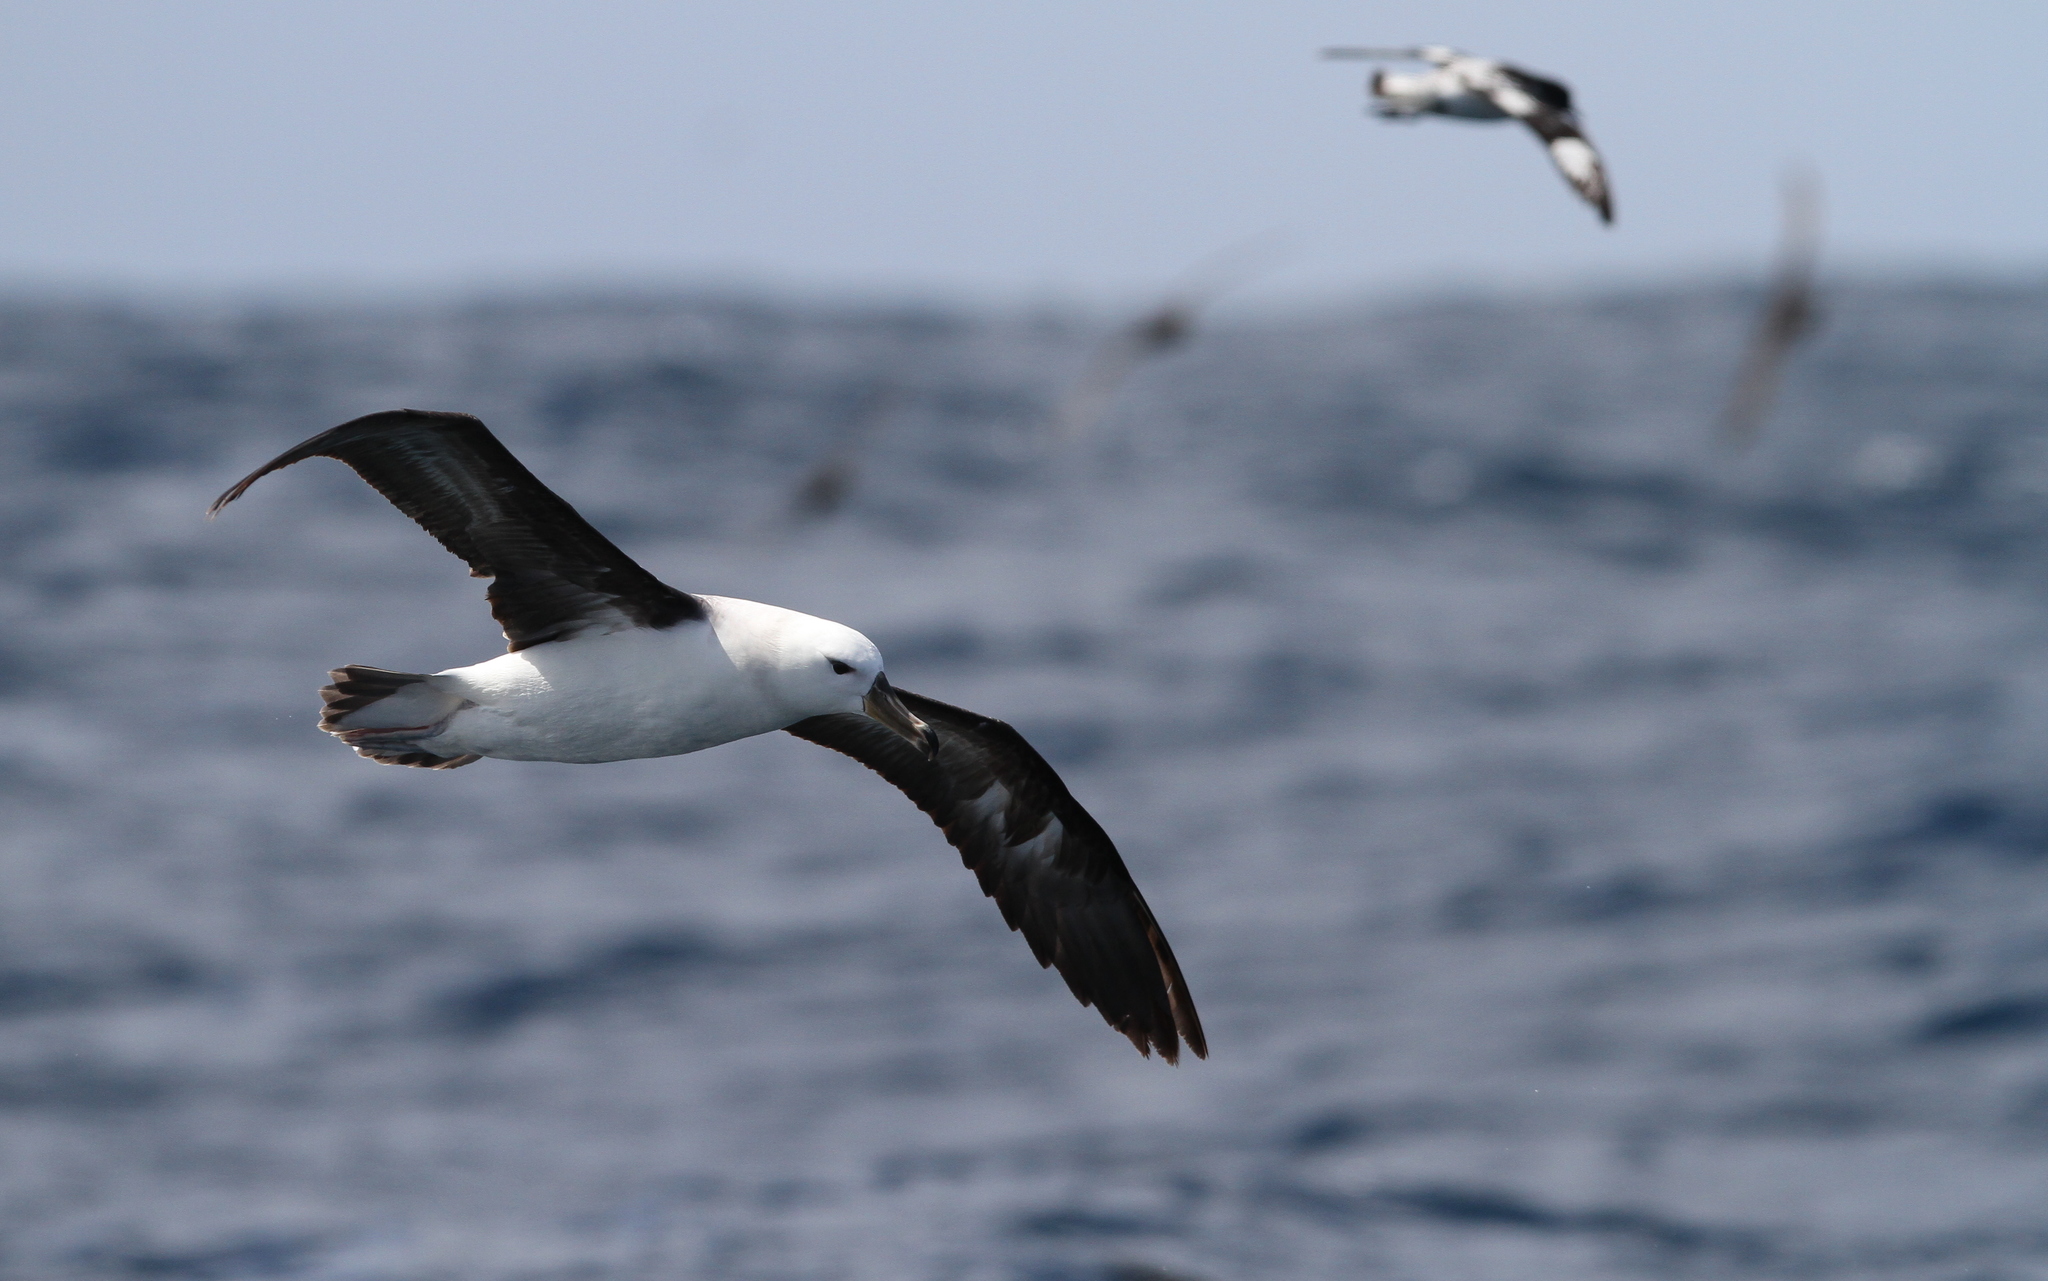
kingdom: Animalia
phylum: Chordata
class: Aves
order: Procellariiformes
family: Diomedeidae
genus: Thalassarche
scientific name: Thalassarche melanophris
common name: Black-browed albatross
